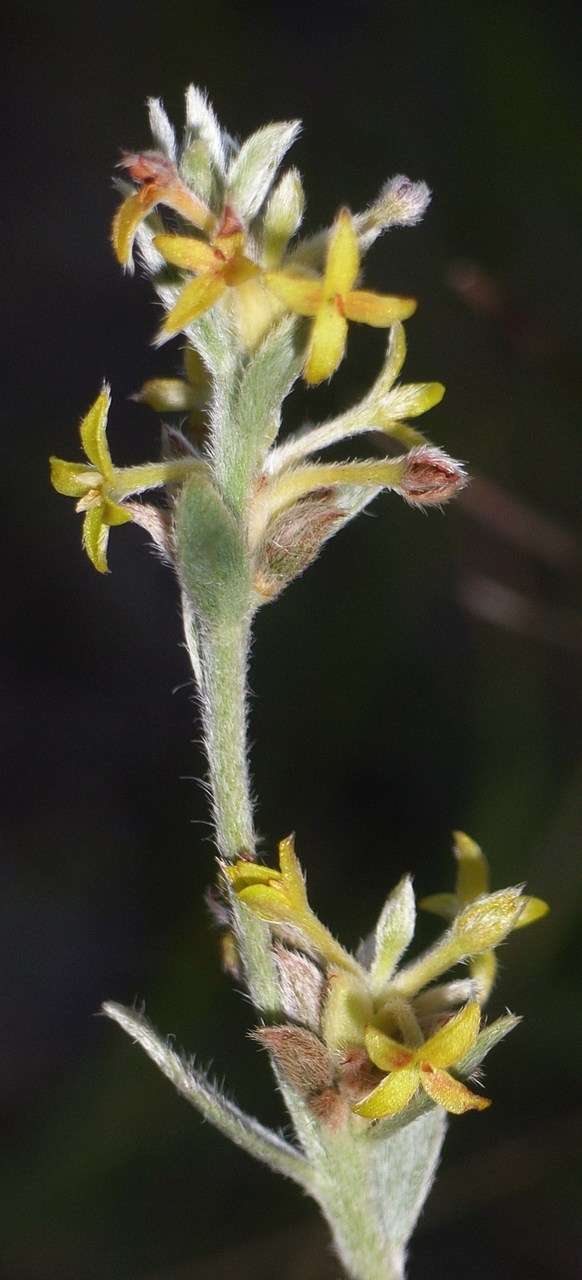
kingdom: Plantae
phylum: Tracheophyta
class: Magnoliopsida
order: Malvales
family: Thymelaeaceae
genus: Pimelea
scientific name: Pimelea curviflora
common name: Curved riceflower
